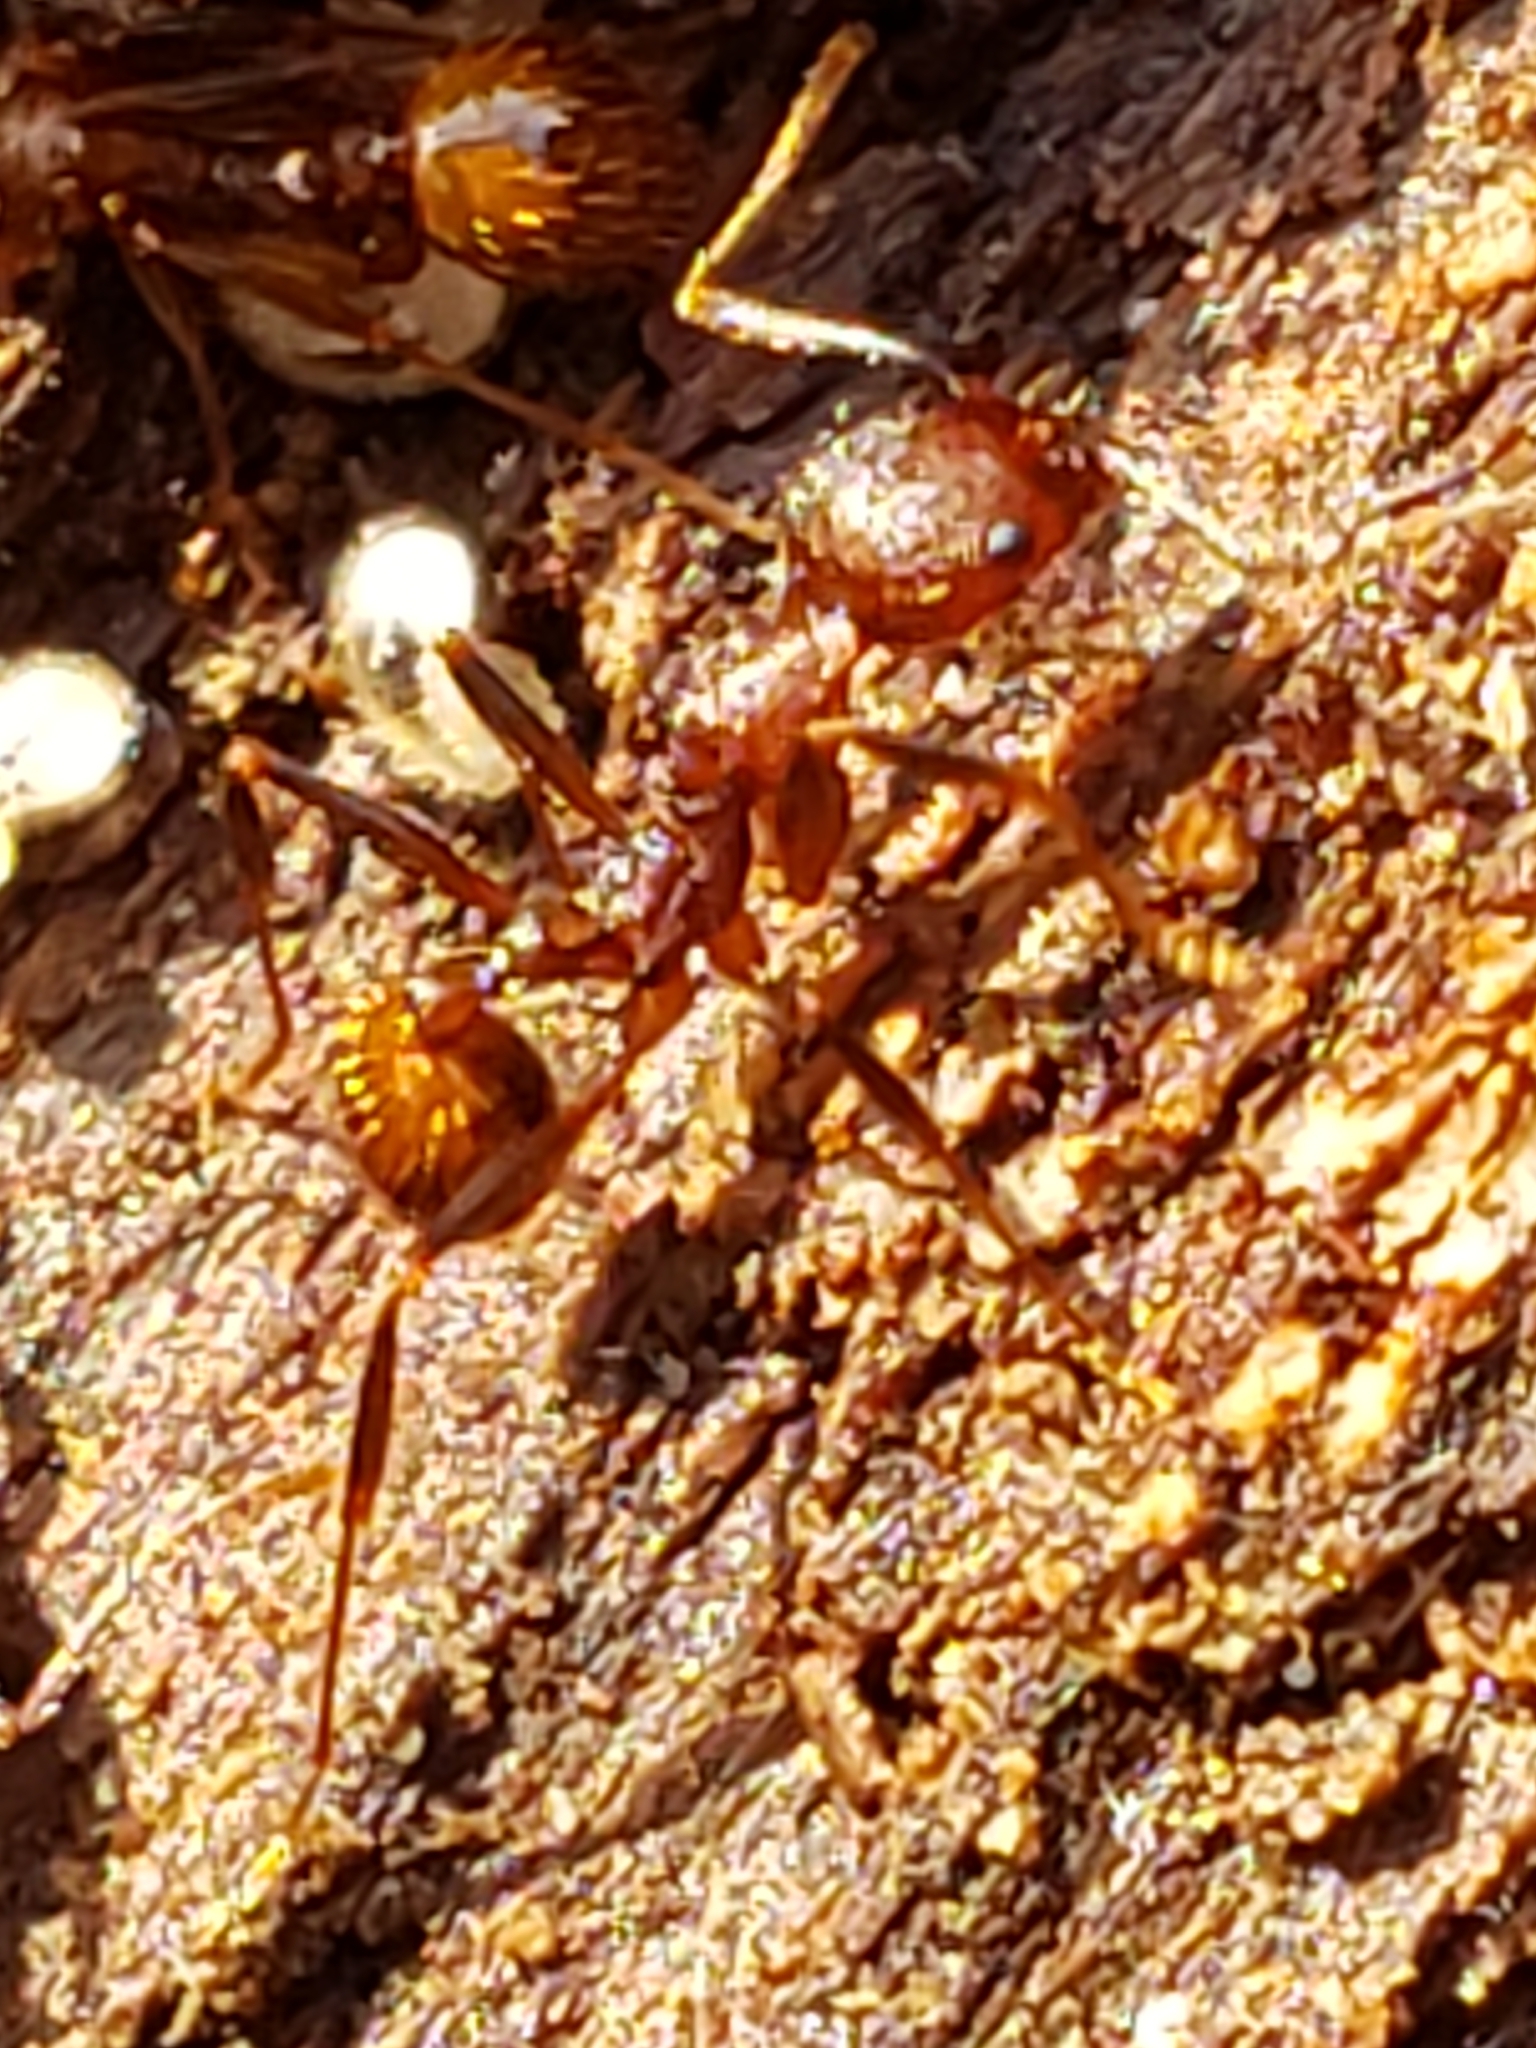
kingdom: Animalia
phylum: Arthropoda
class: Insecta
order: Hymenoptera
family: Formicidae
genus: Aphaenogaster
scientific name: Aphaenogaster fulva
